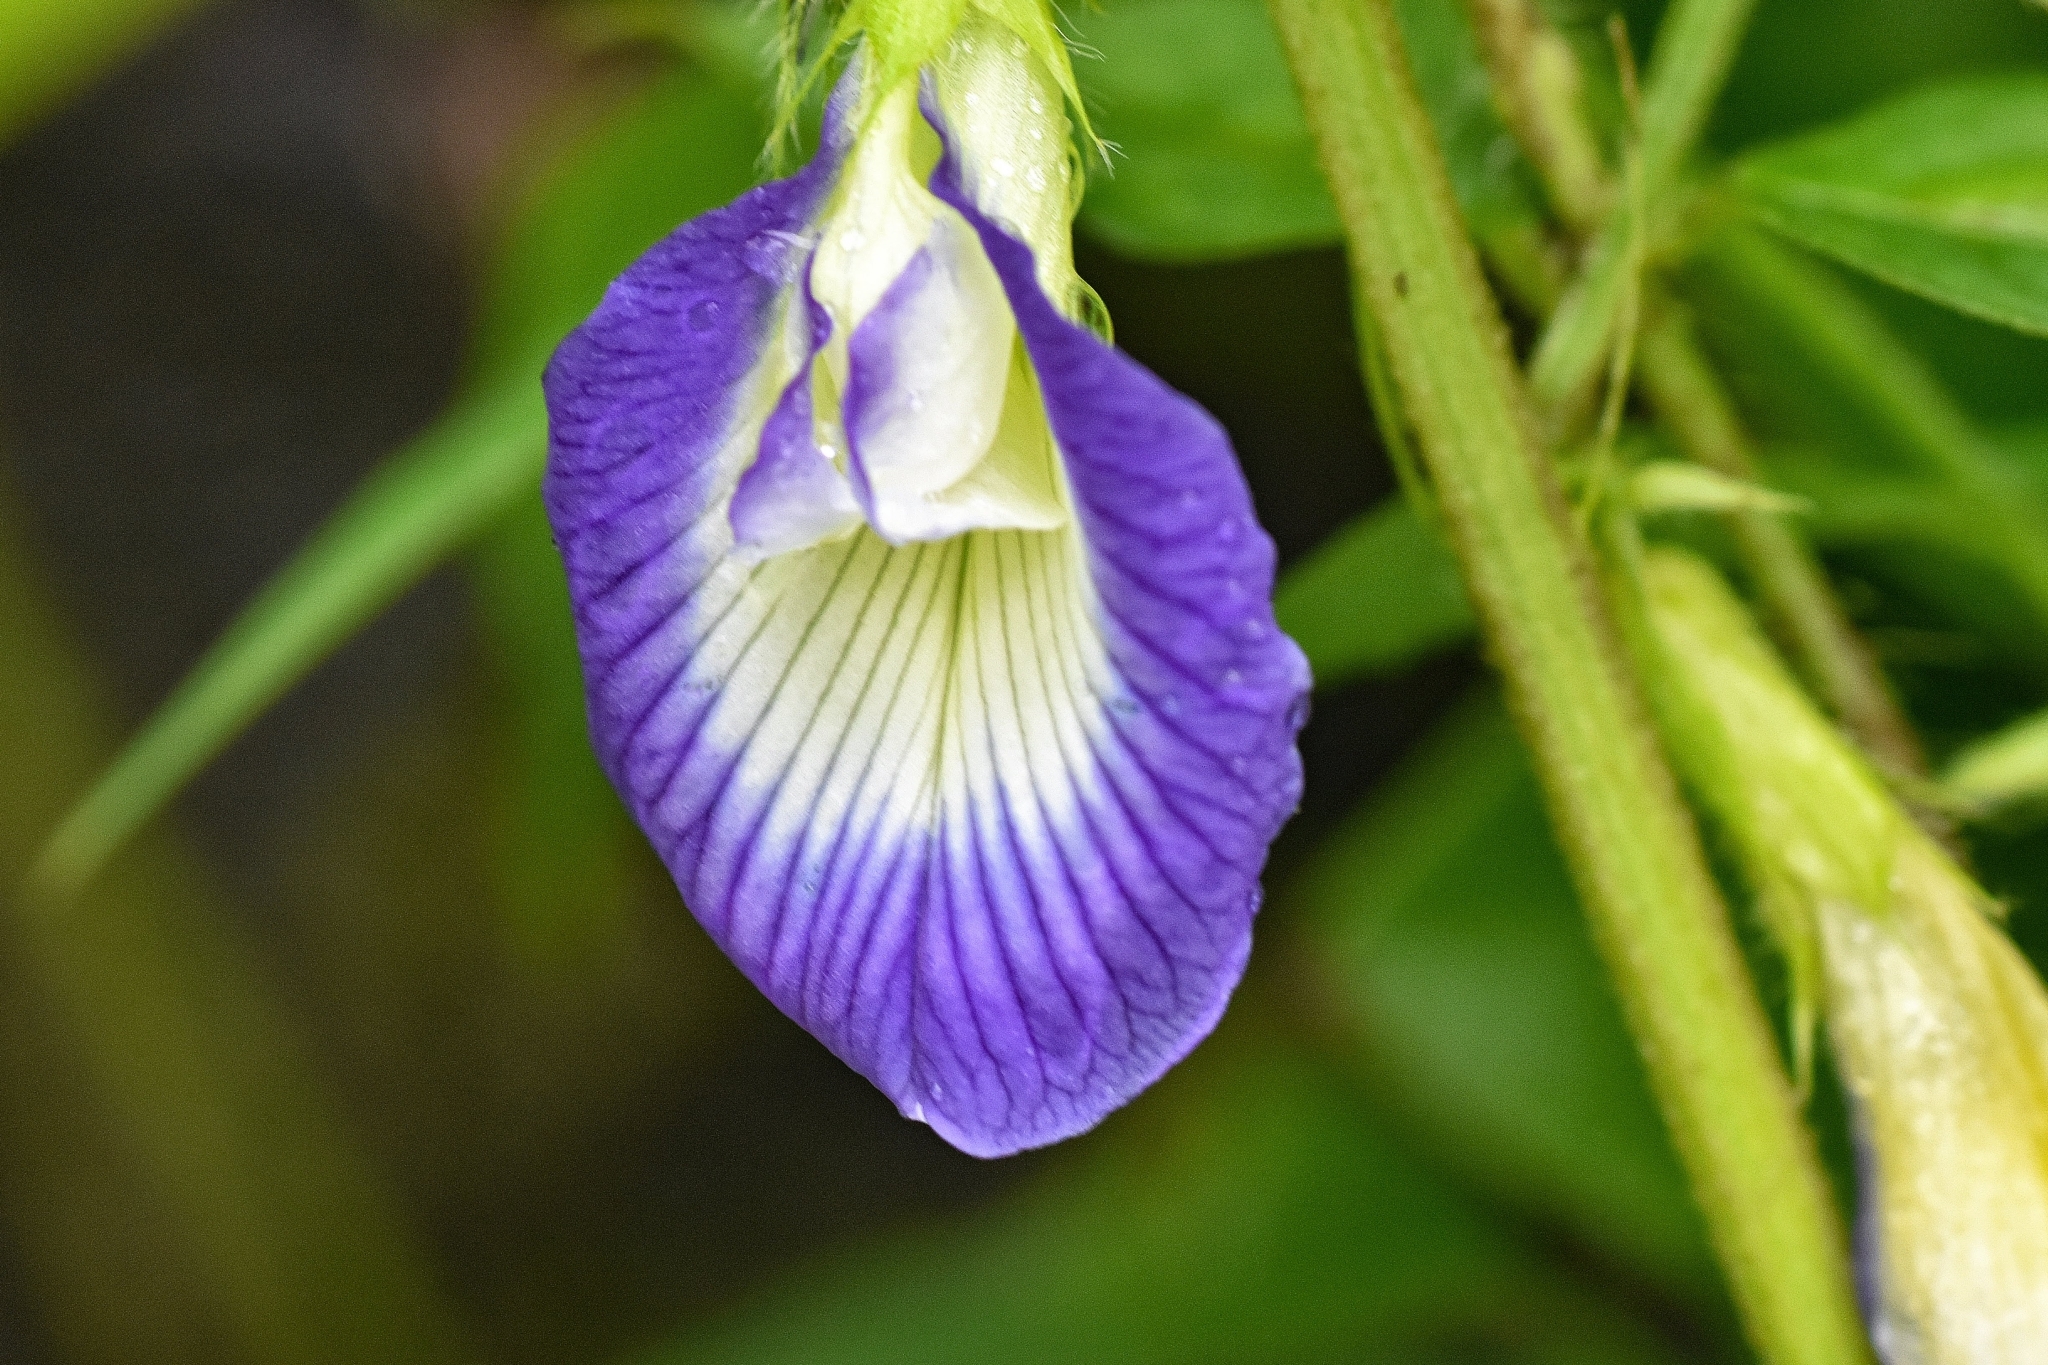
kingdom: Plantae
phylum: Tracheophyta
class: Magnoliopsida
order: Fabales
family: Fabaceae
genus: Clitoria
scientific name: Clitoria ternatea
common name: Asian pigeonwings
